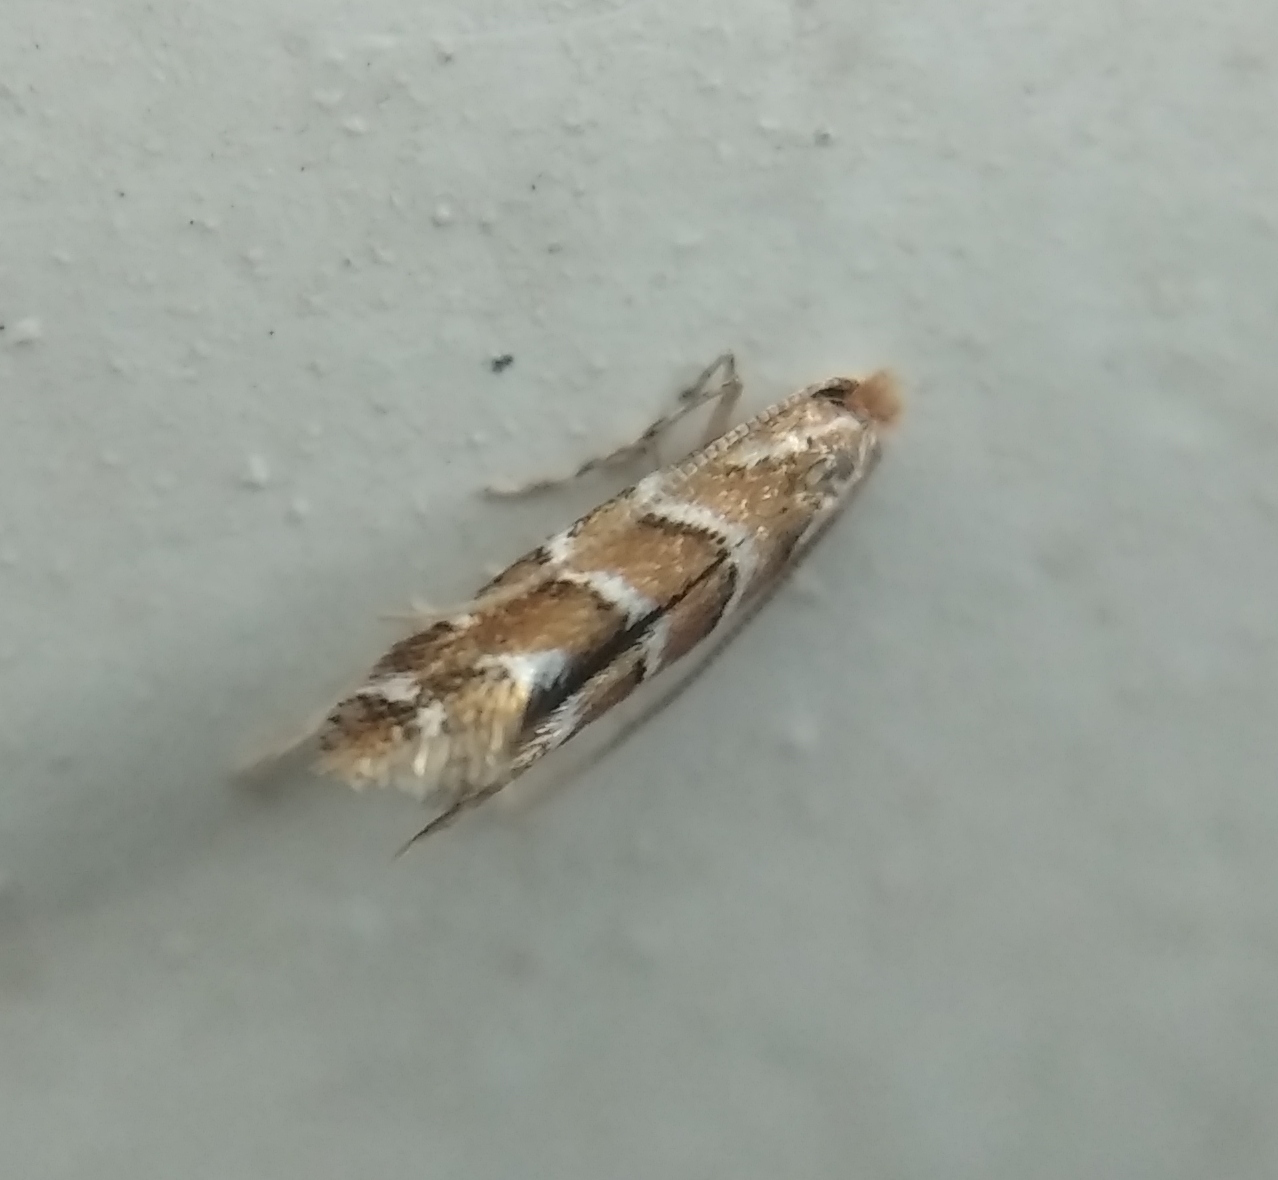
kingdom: Animalia
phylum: Arthropoda
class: Insecta
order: Lepidoptera
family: Gracillariidae
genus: Cameraria
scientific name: Cameraria ohridella
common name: Horse-chestnut leaf-miner
